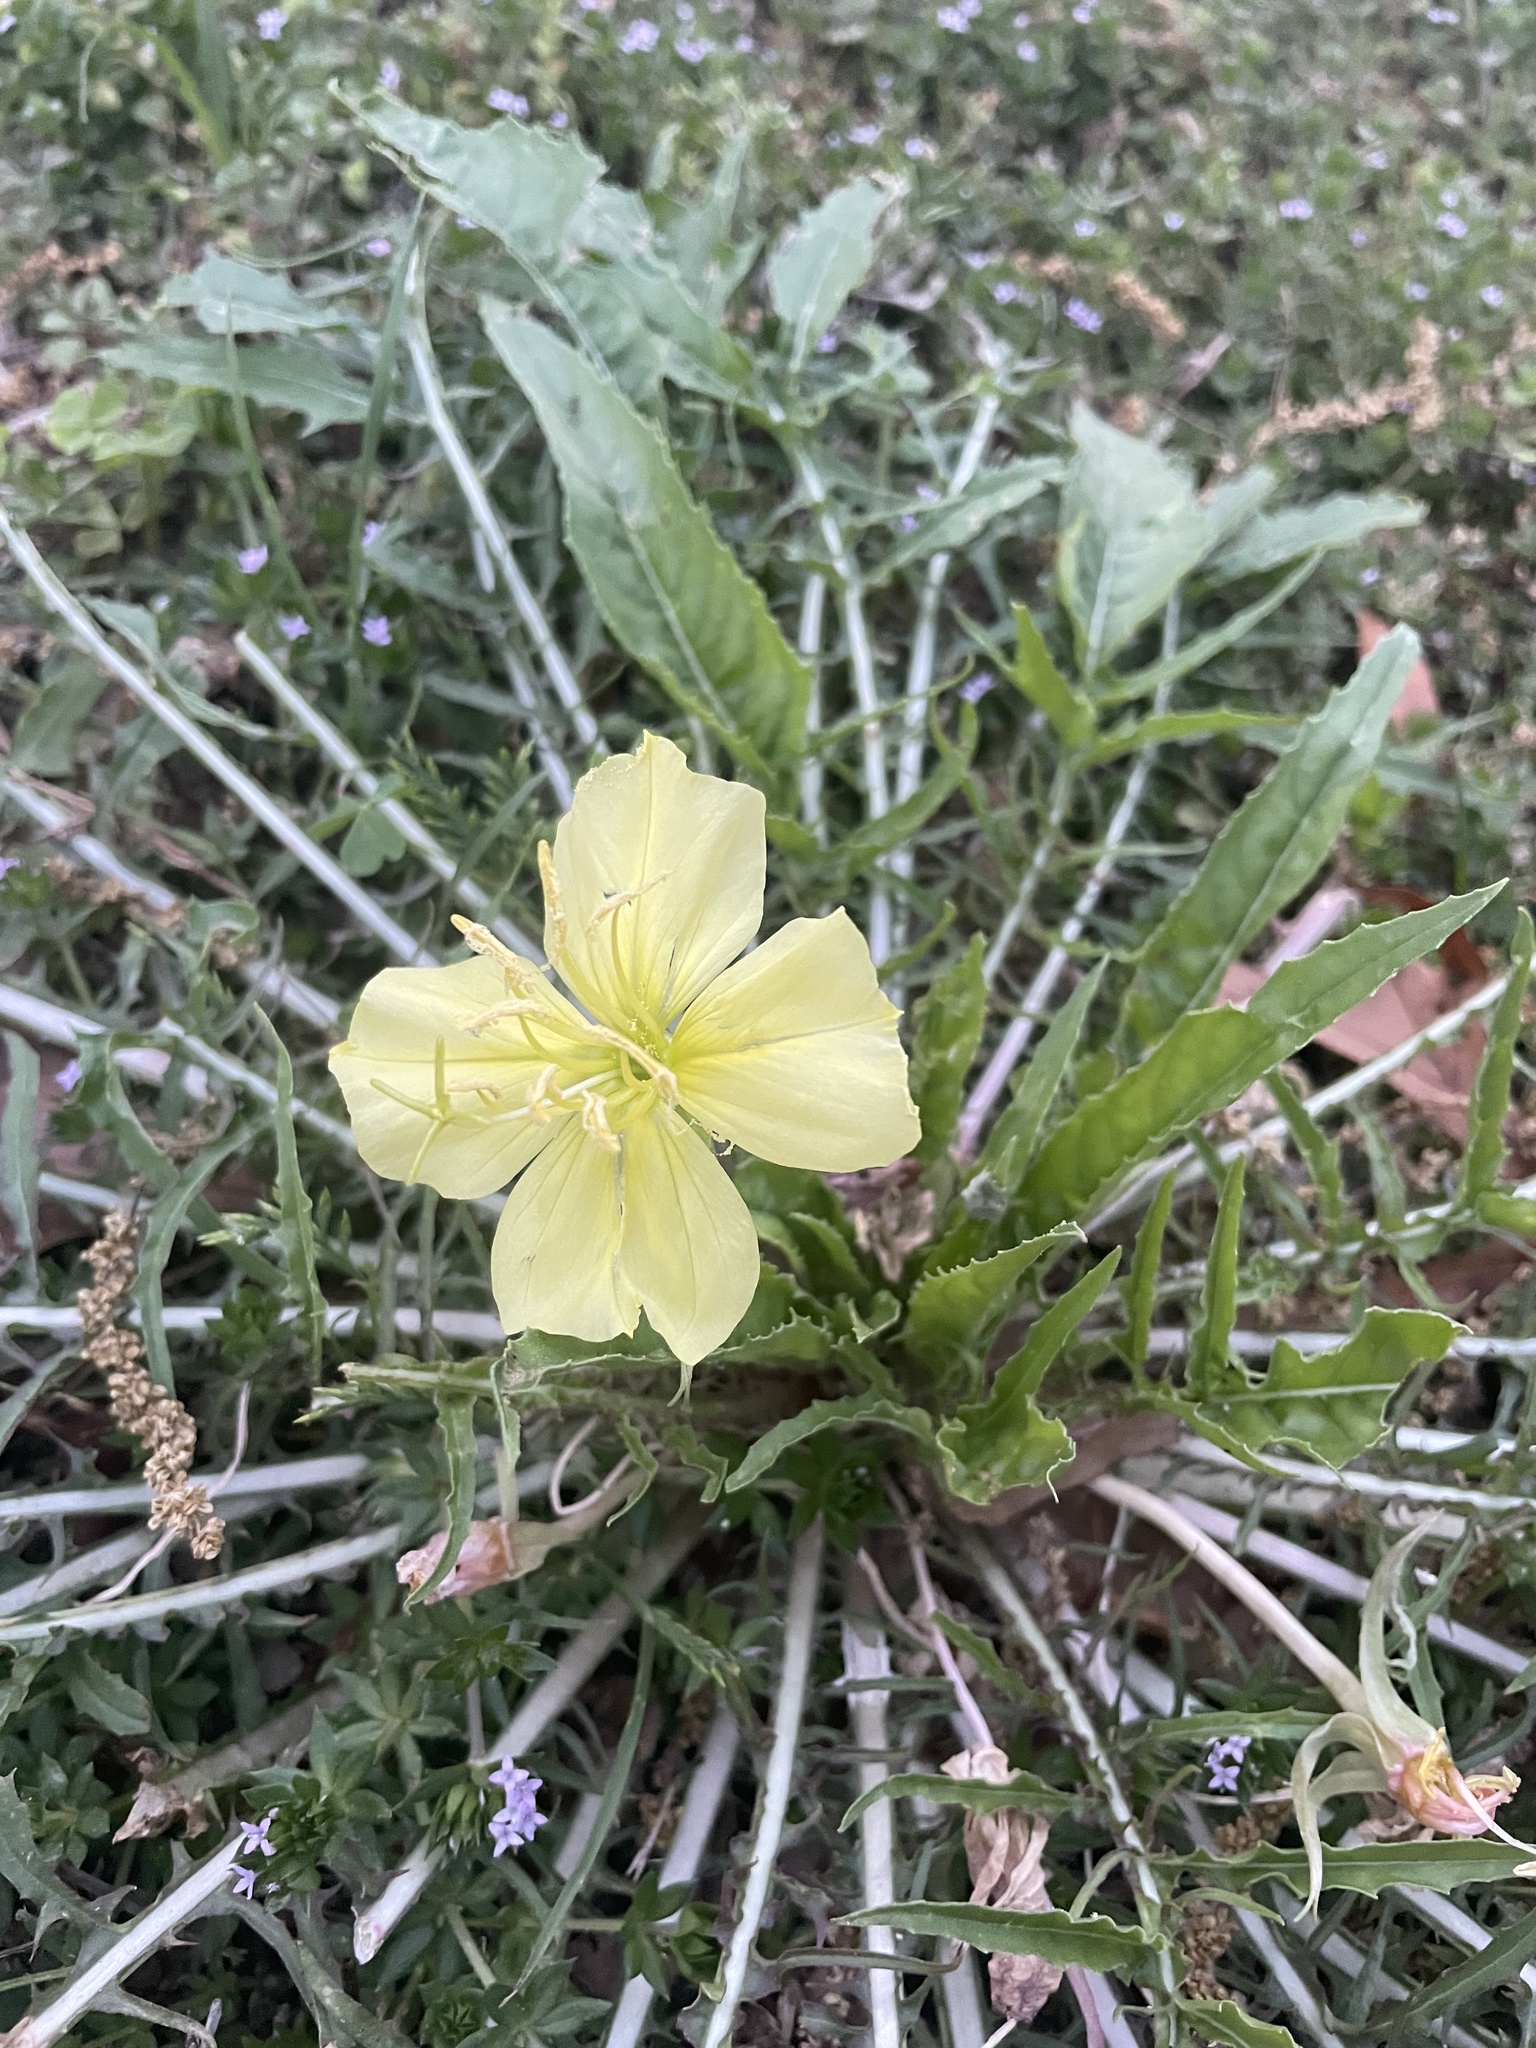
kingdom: Plantae
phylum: Tracheophyta
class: Magnoliopsida
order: Myrtales
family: Onagraceae
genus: Oenothera
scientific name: Oenothera triloba
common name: Sessile evening-primrose
